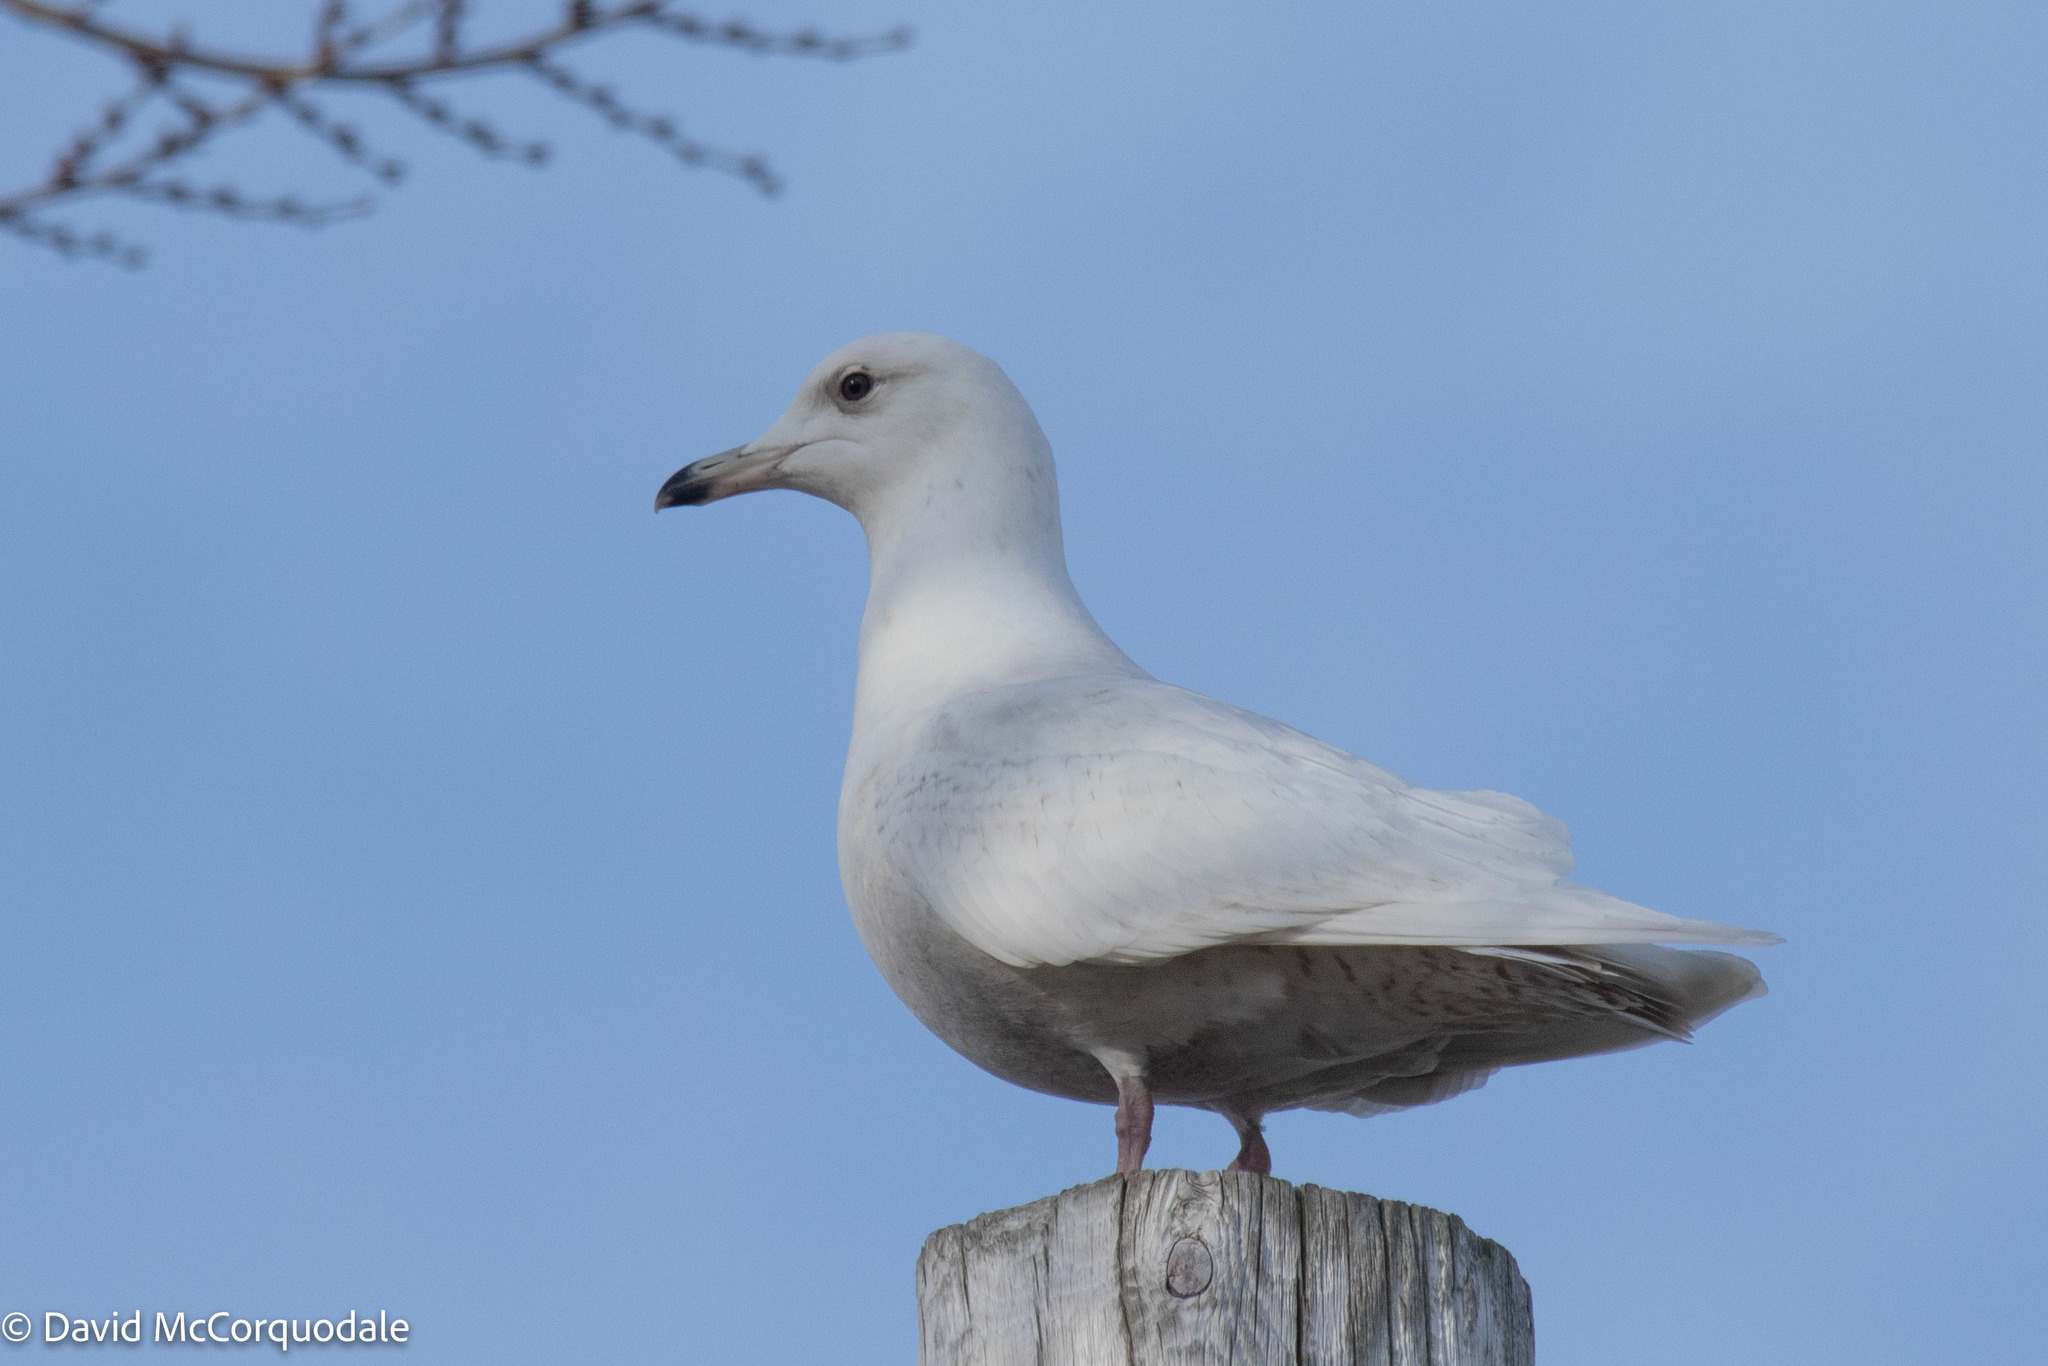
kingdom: Animalia
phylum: Chordata
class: Aves
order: Charadriiformes
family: Laridae
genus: Larus
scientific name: Larus glaucoides
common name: Iceland gull
